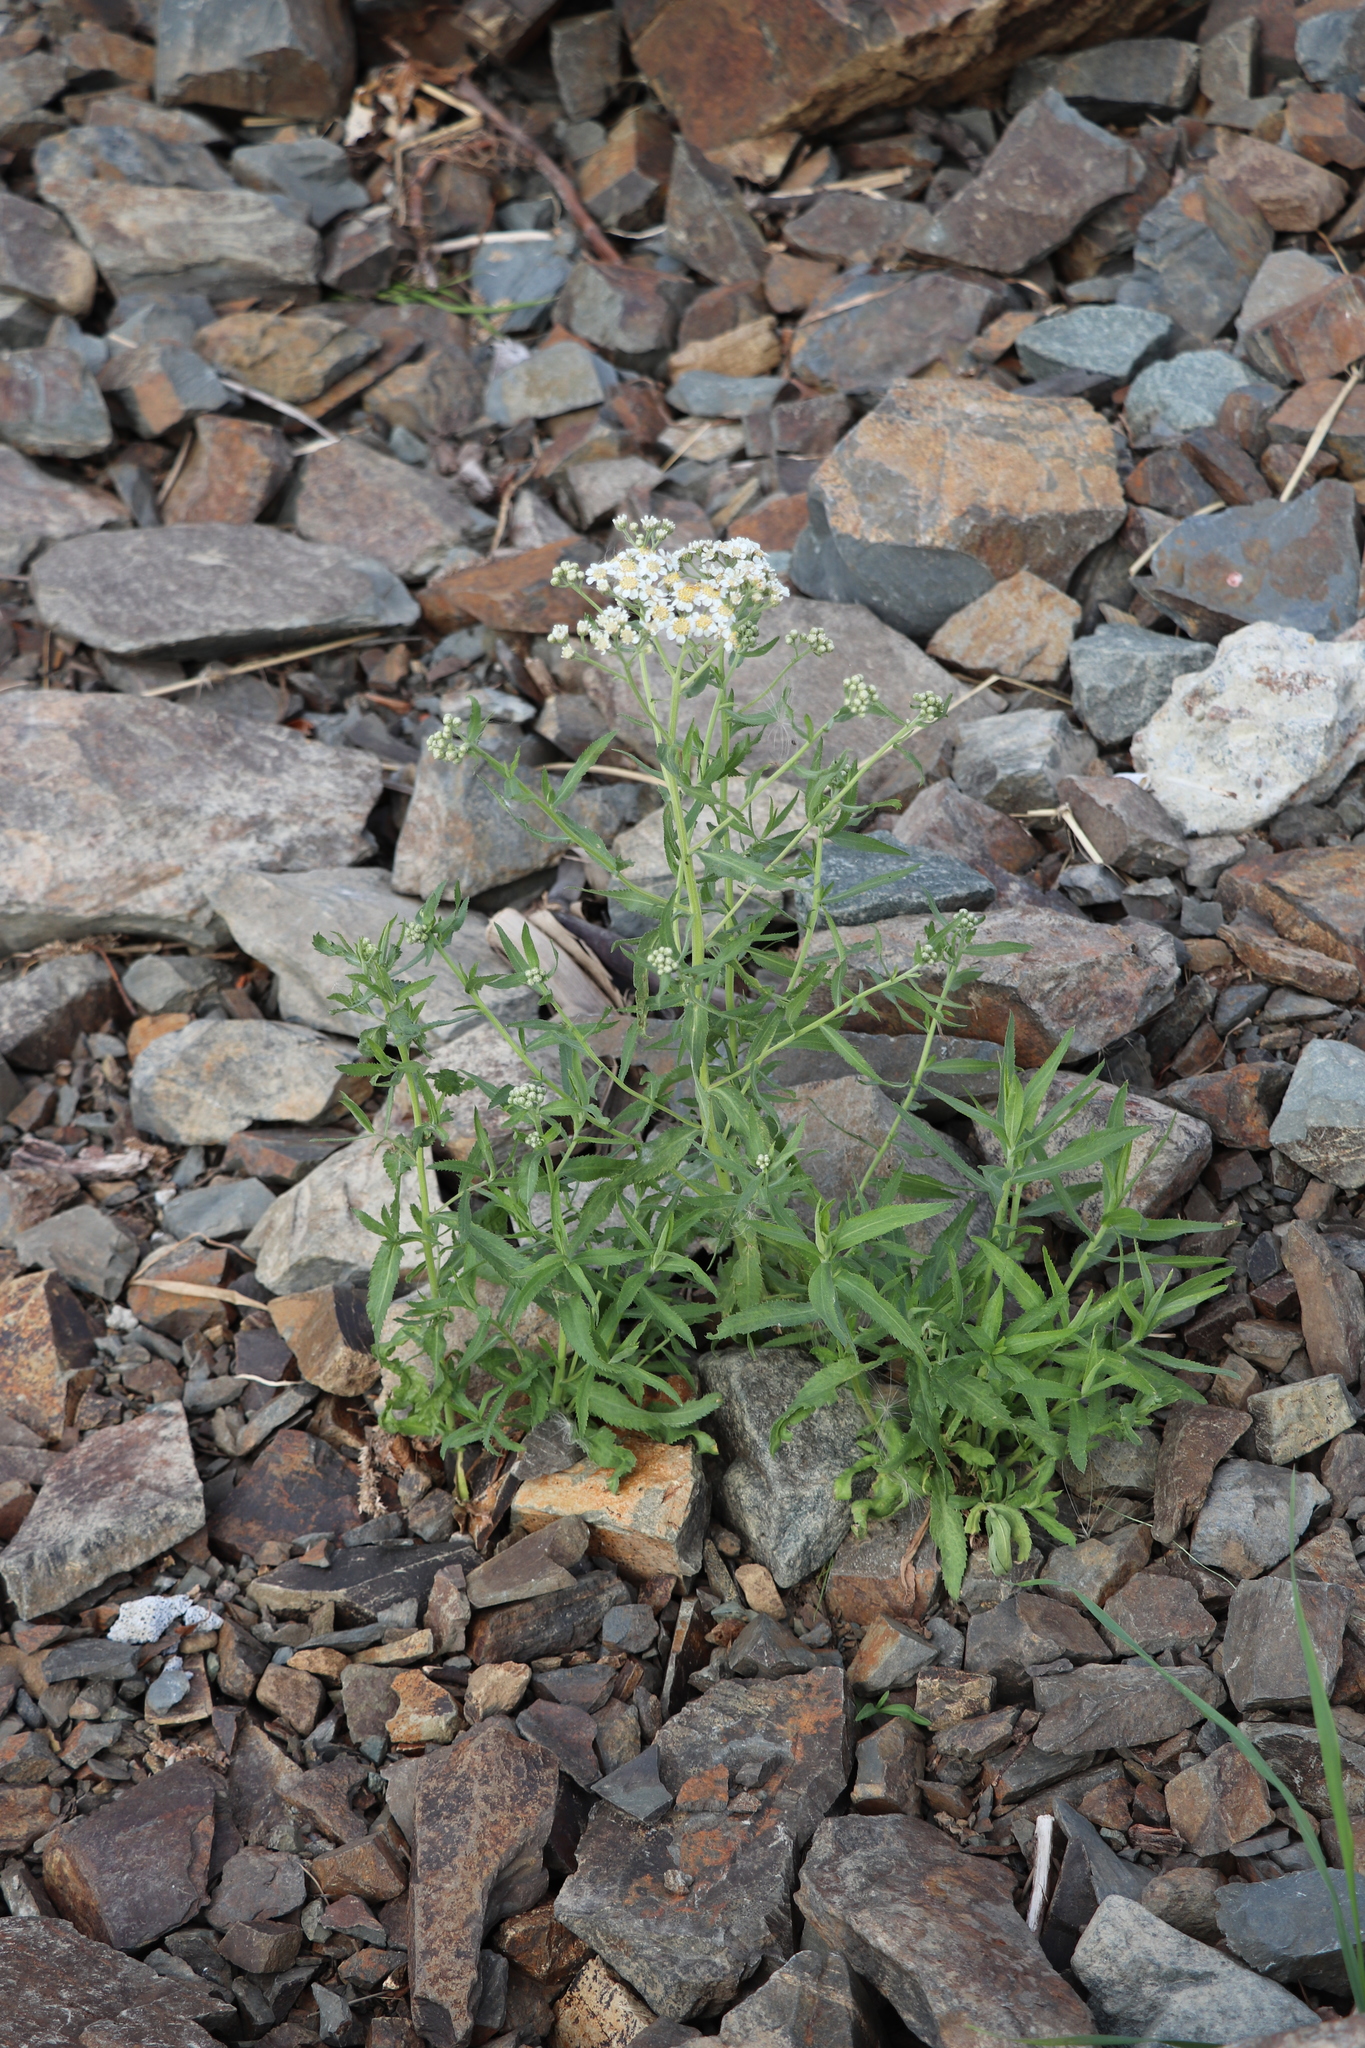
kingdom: Plantae
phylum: Tracheophyta
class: Magnoliopsida
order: Asterales
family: Asteraceae
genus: Achillea
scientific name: Achillea salicifolia
